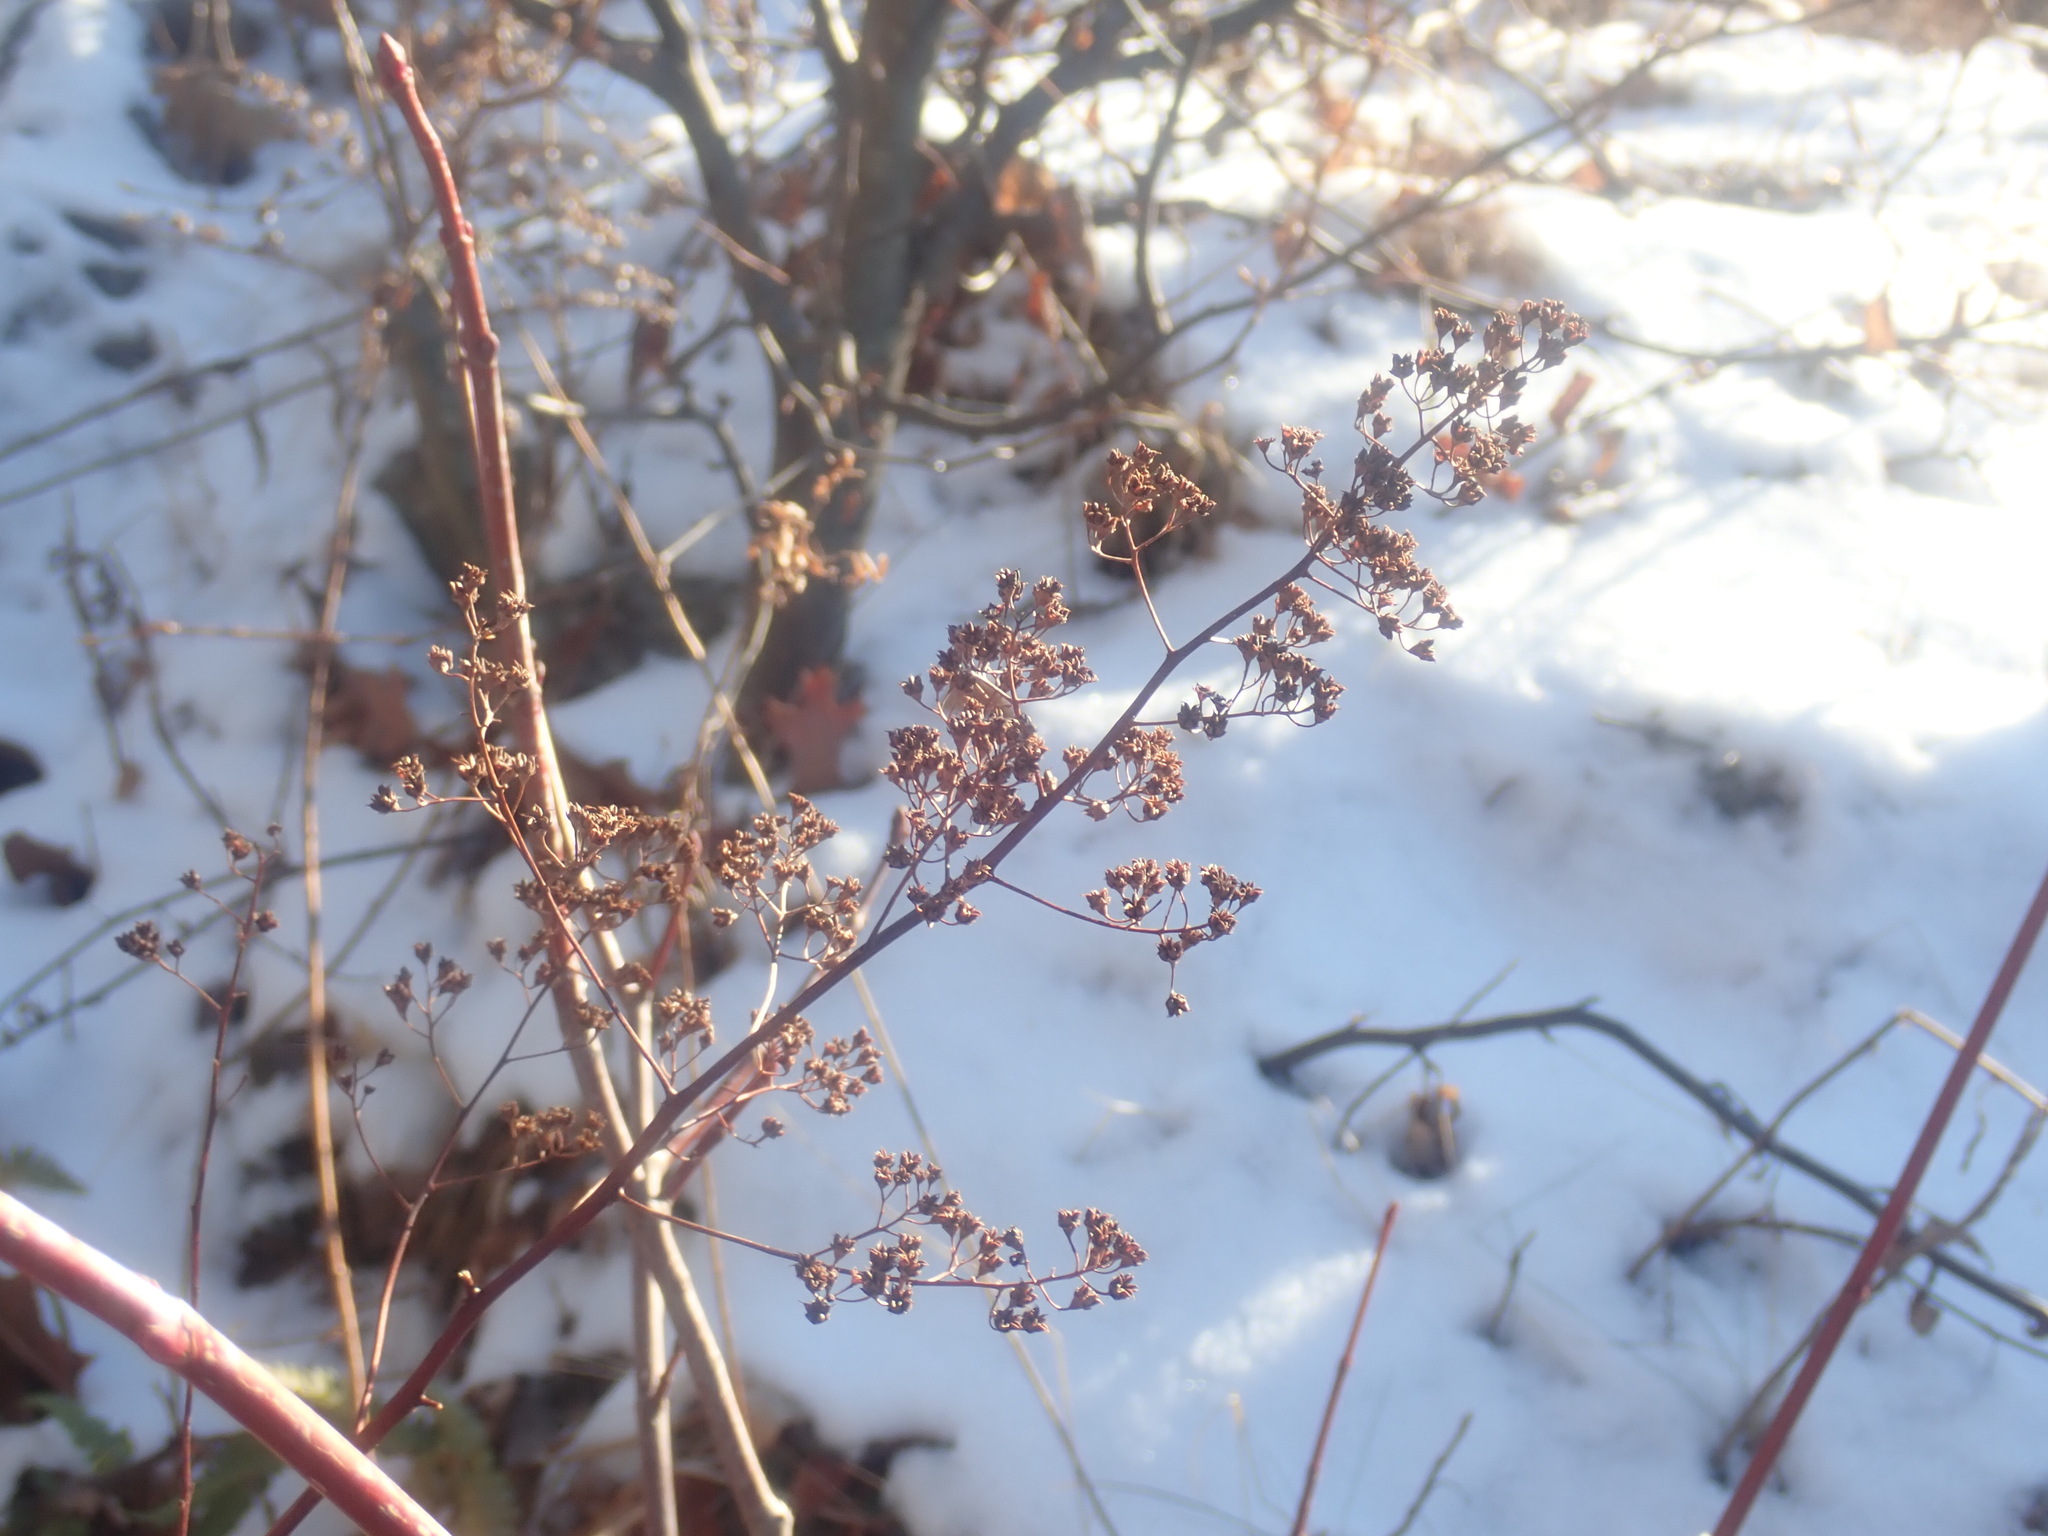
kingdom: Plantae
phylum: Tracheophyta
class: Magnoliopsida
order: Rosales
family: Rosaceae
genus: Spiraea
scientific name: Spiraea alba
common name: Pale bridewort
